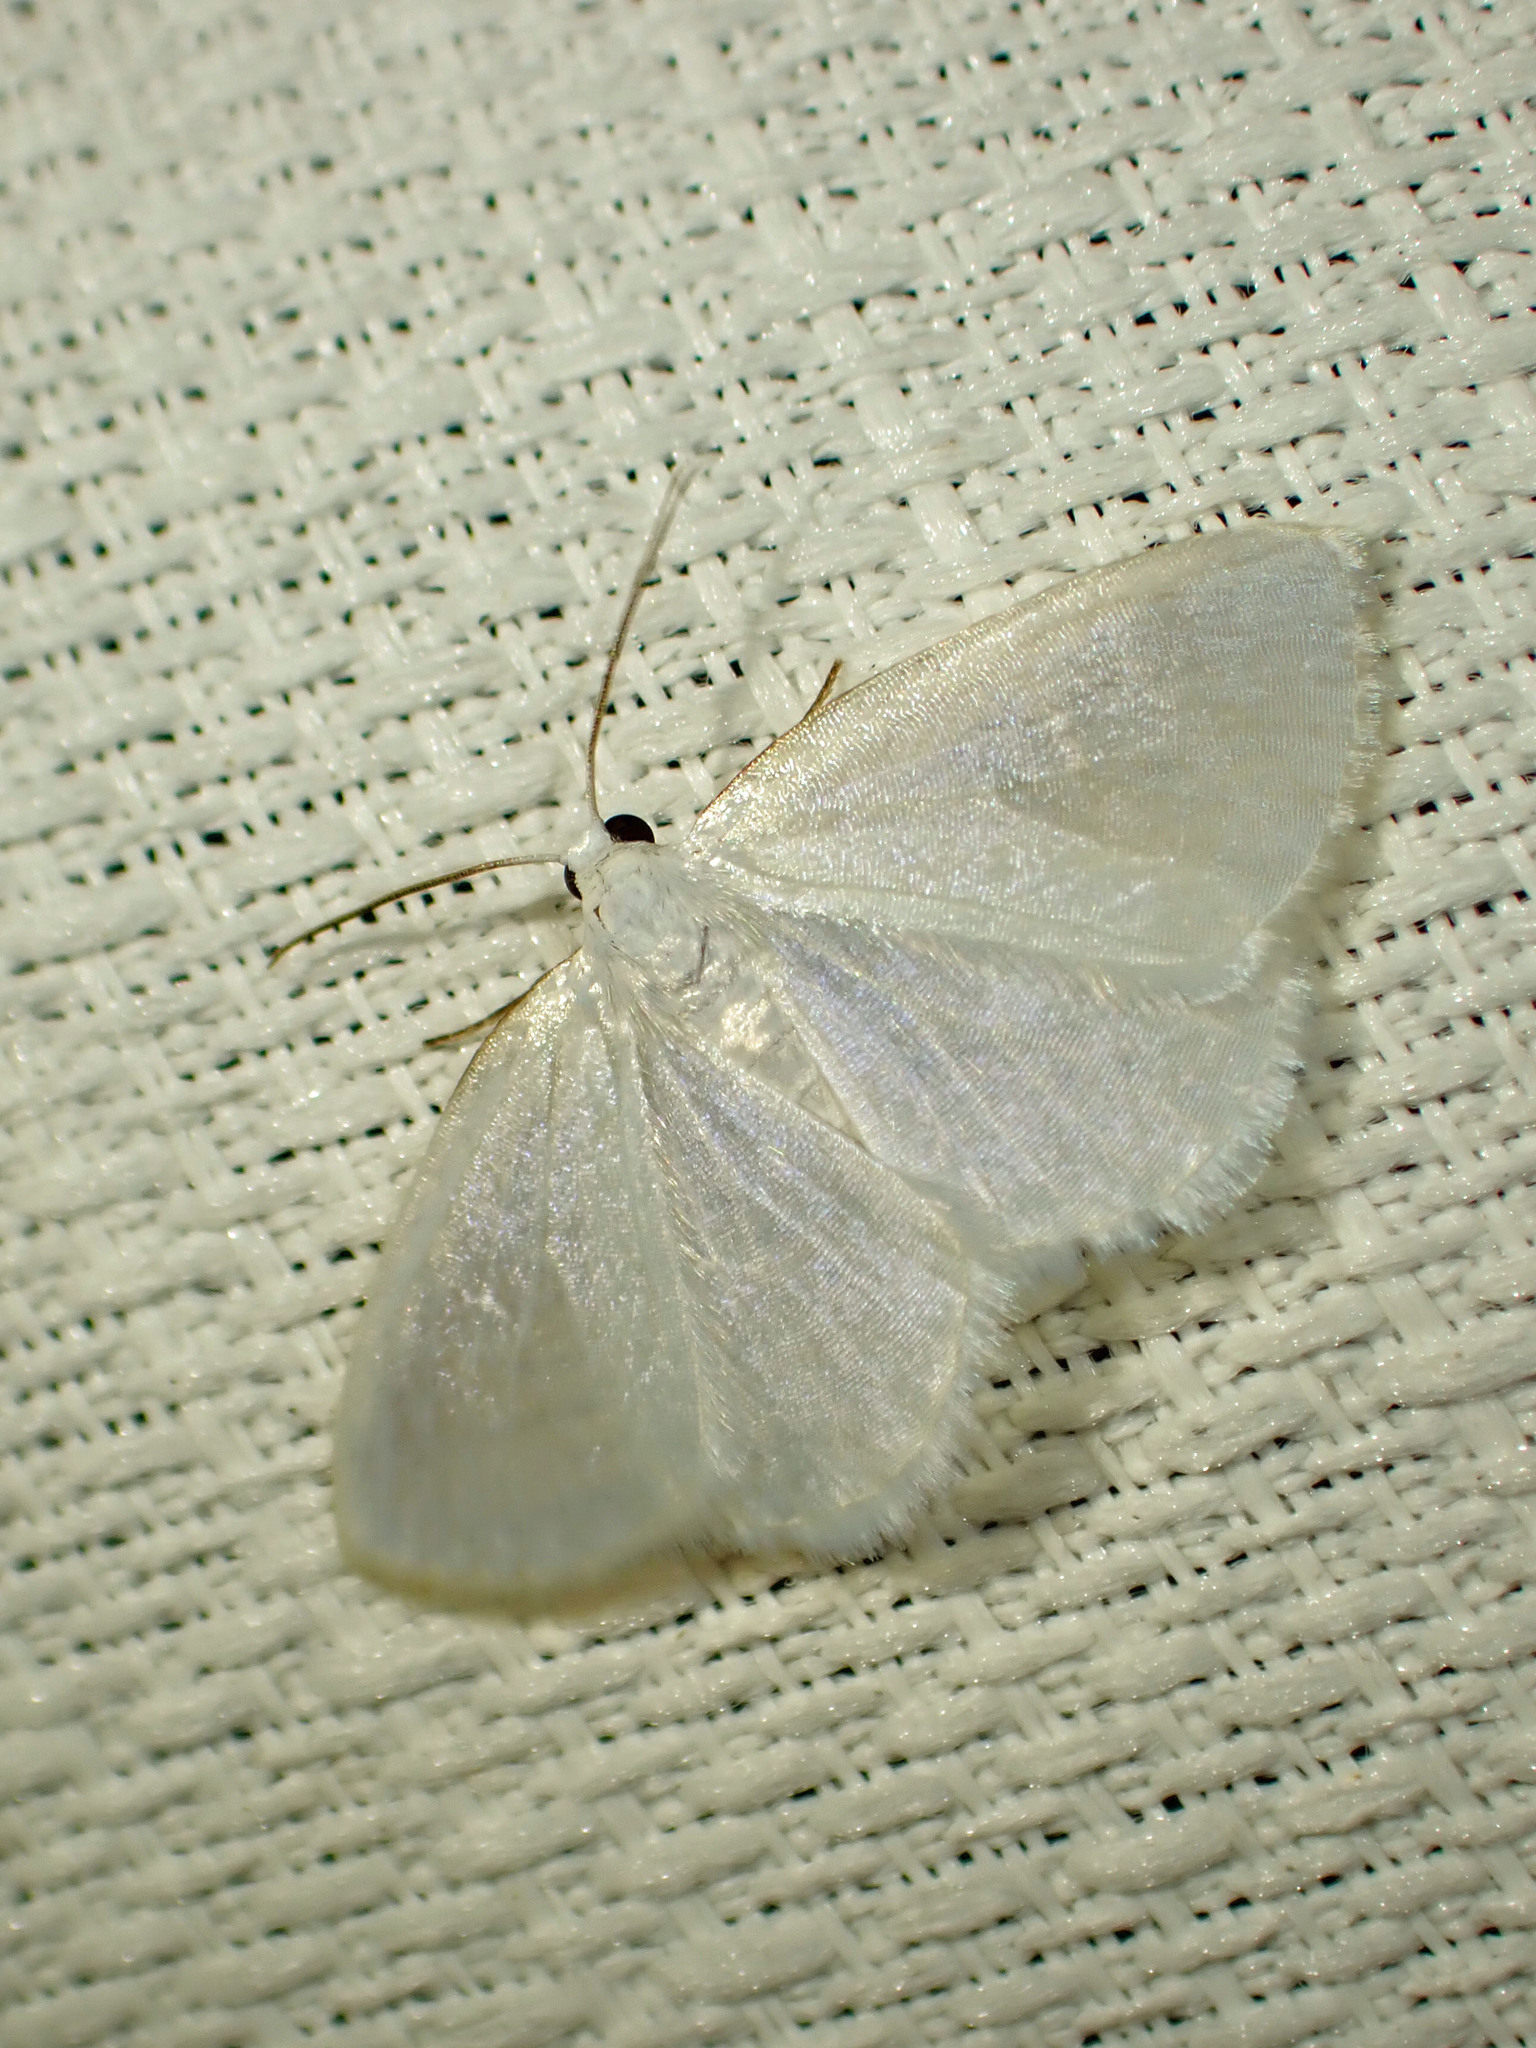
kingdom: Animalia
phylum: Arthropoda
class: Insecta
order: Lepidoptera
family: Geometridae
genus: Lomographa
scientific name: Lomographa vestaliata
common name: White spring moth
